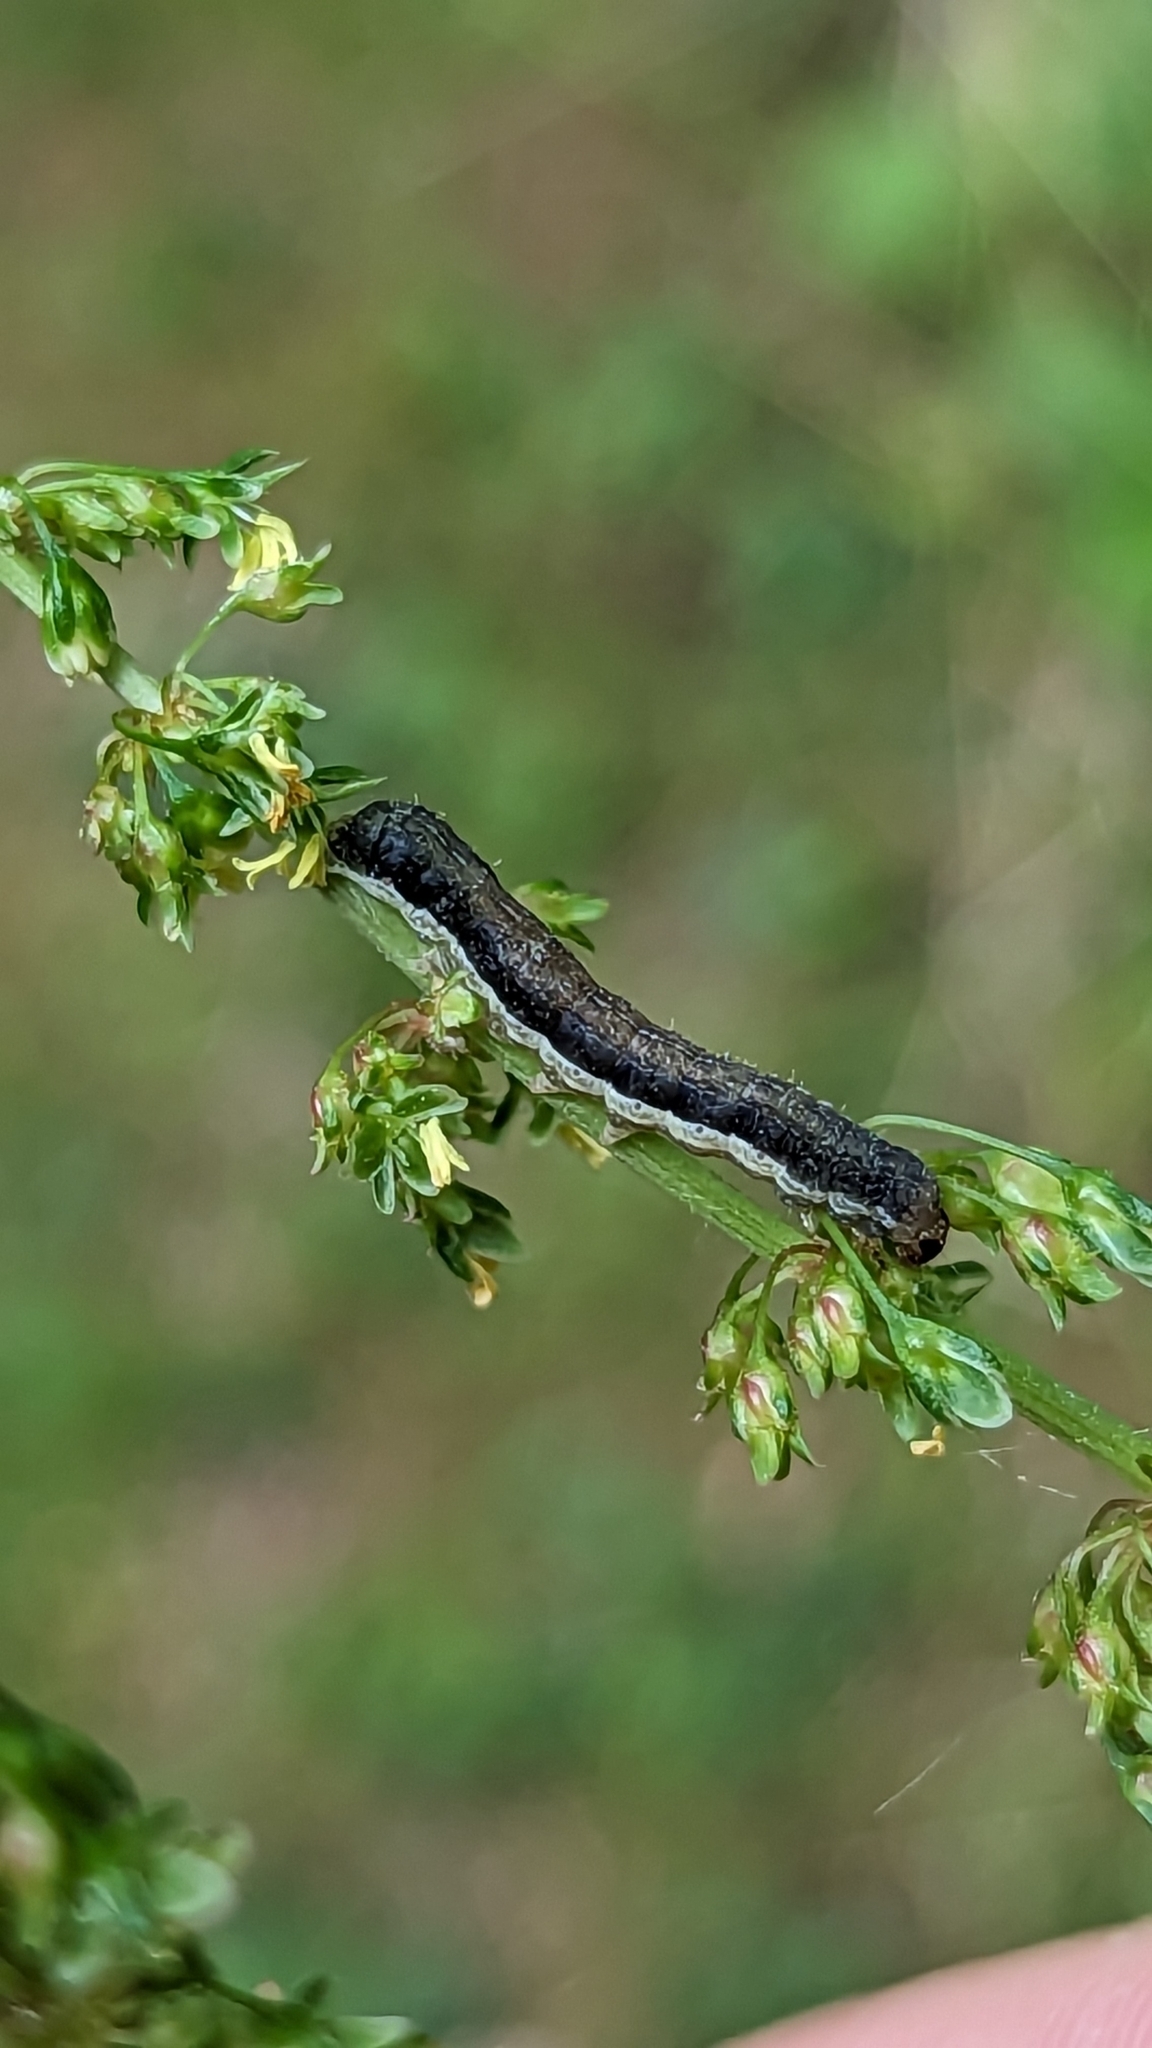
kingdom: Animalia
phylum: Arthropoda
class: Insecta
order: Lepidoptera
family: Noctuidae
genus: Crocigrapha
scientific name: Crocigrapha normani
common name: Norman's quaker
